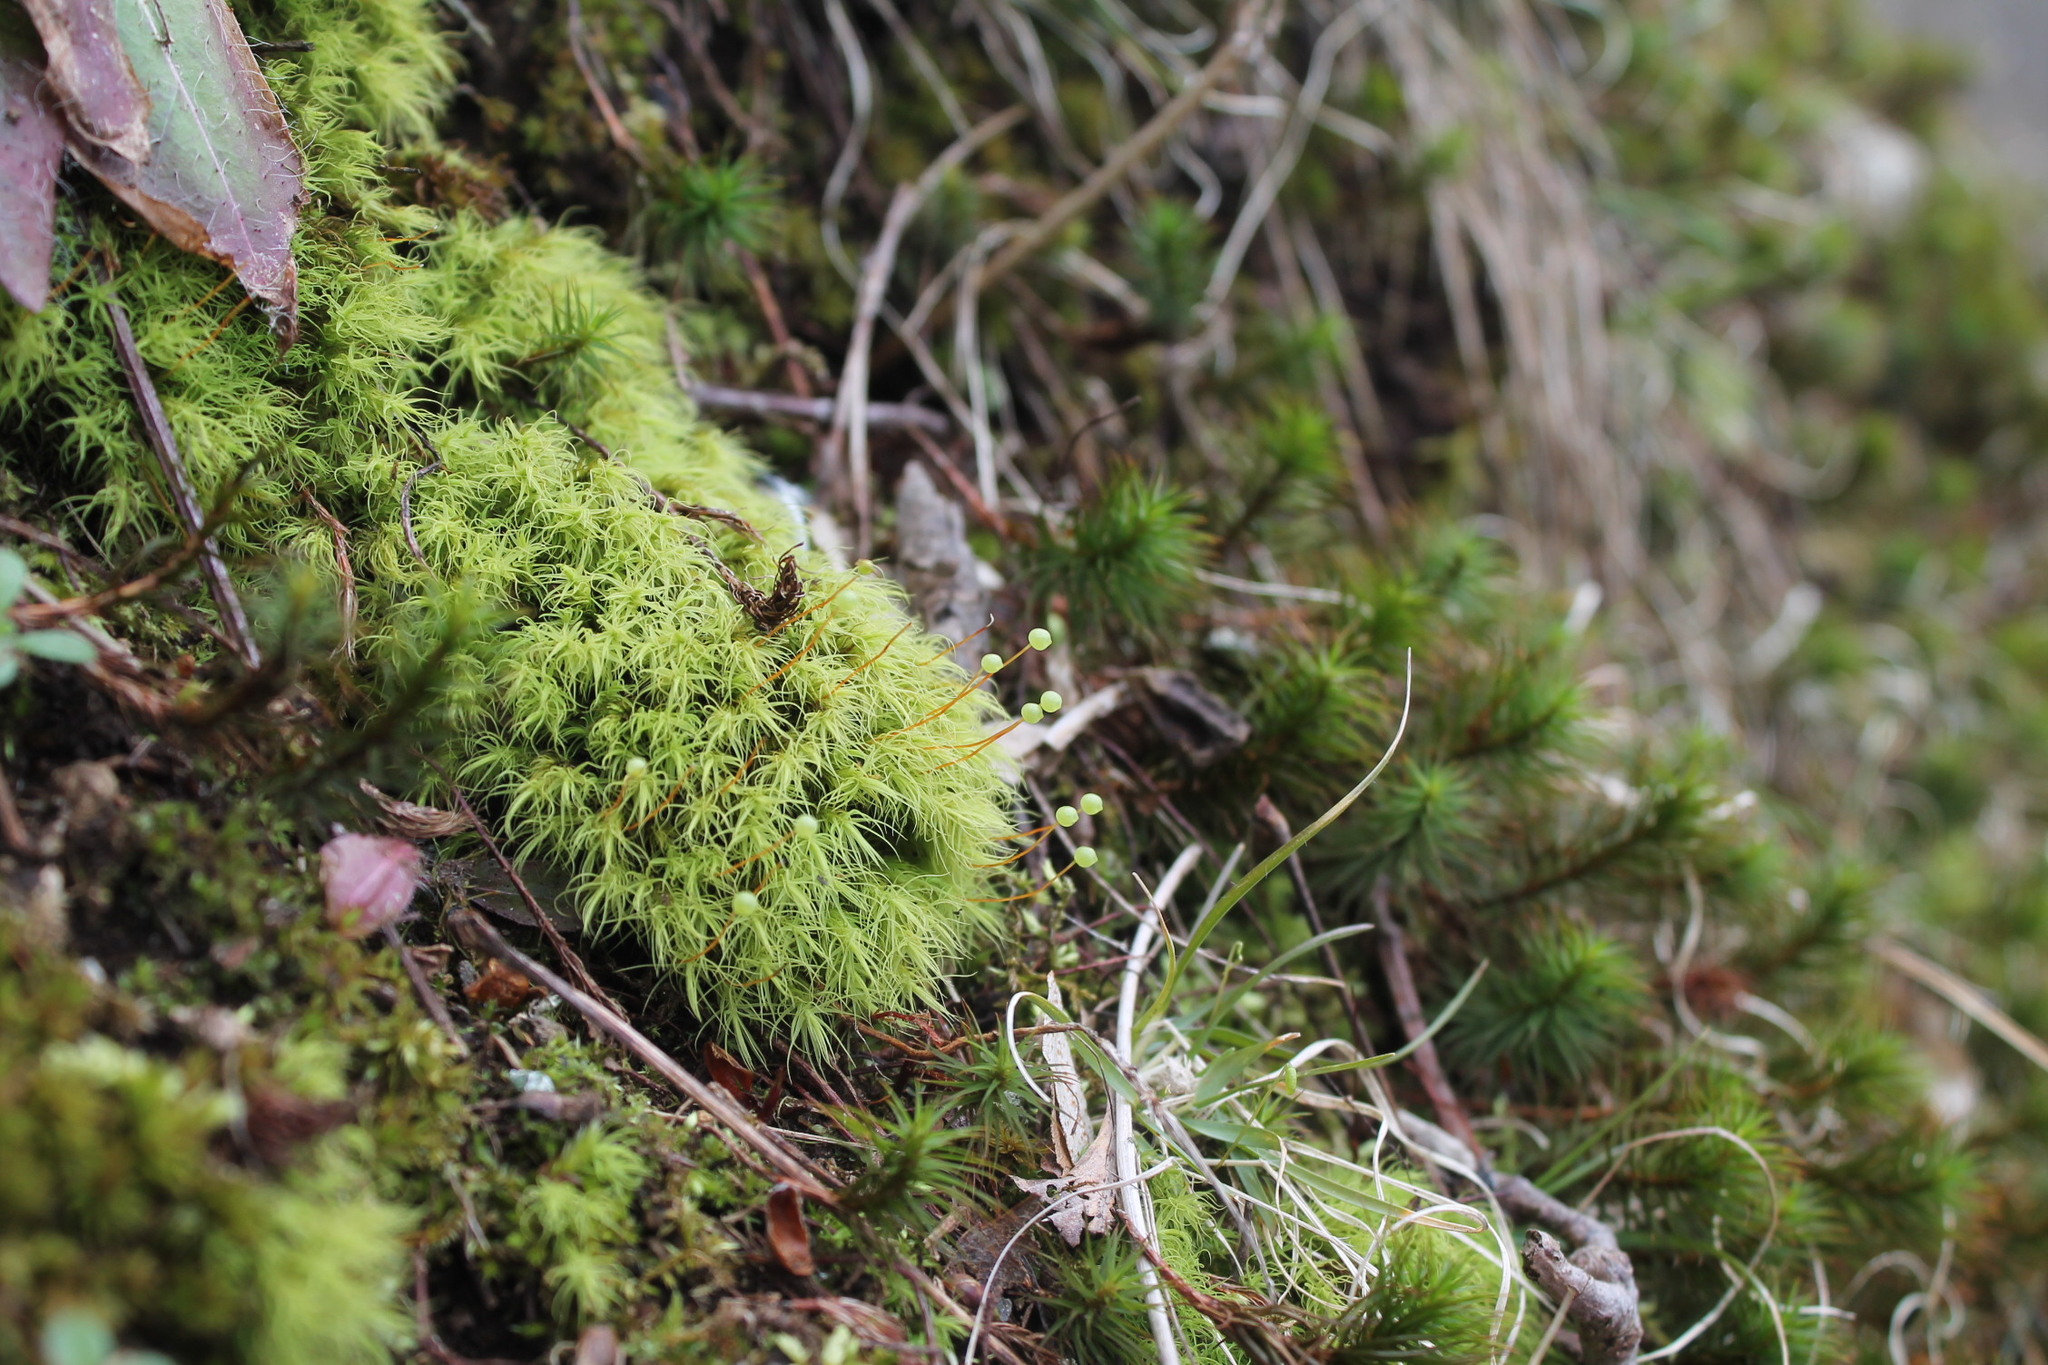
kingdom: Plantae
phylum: Bryophyta
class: Bryopsida
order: Bartramiales
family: Bartramiaceae
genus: Bartramia
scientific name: Bartramia ithyphylla
